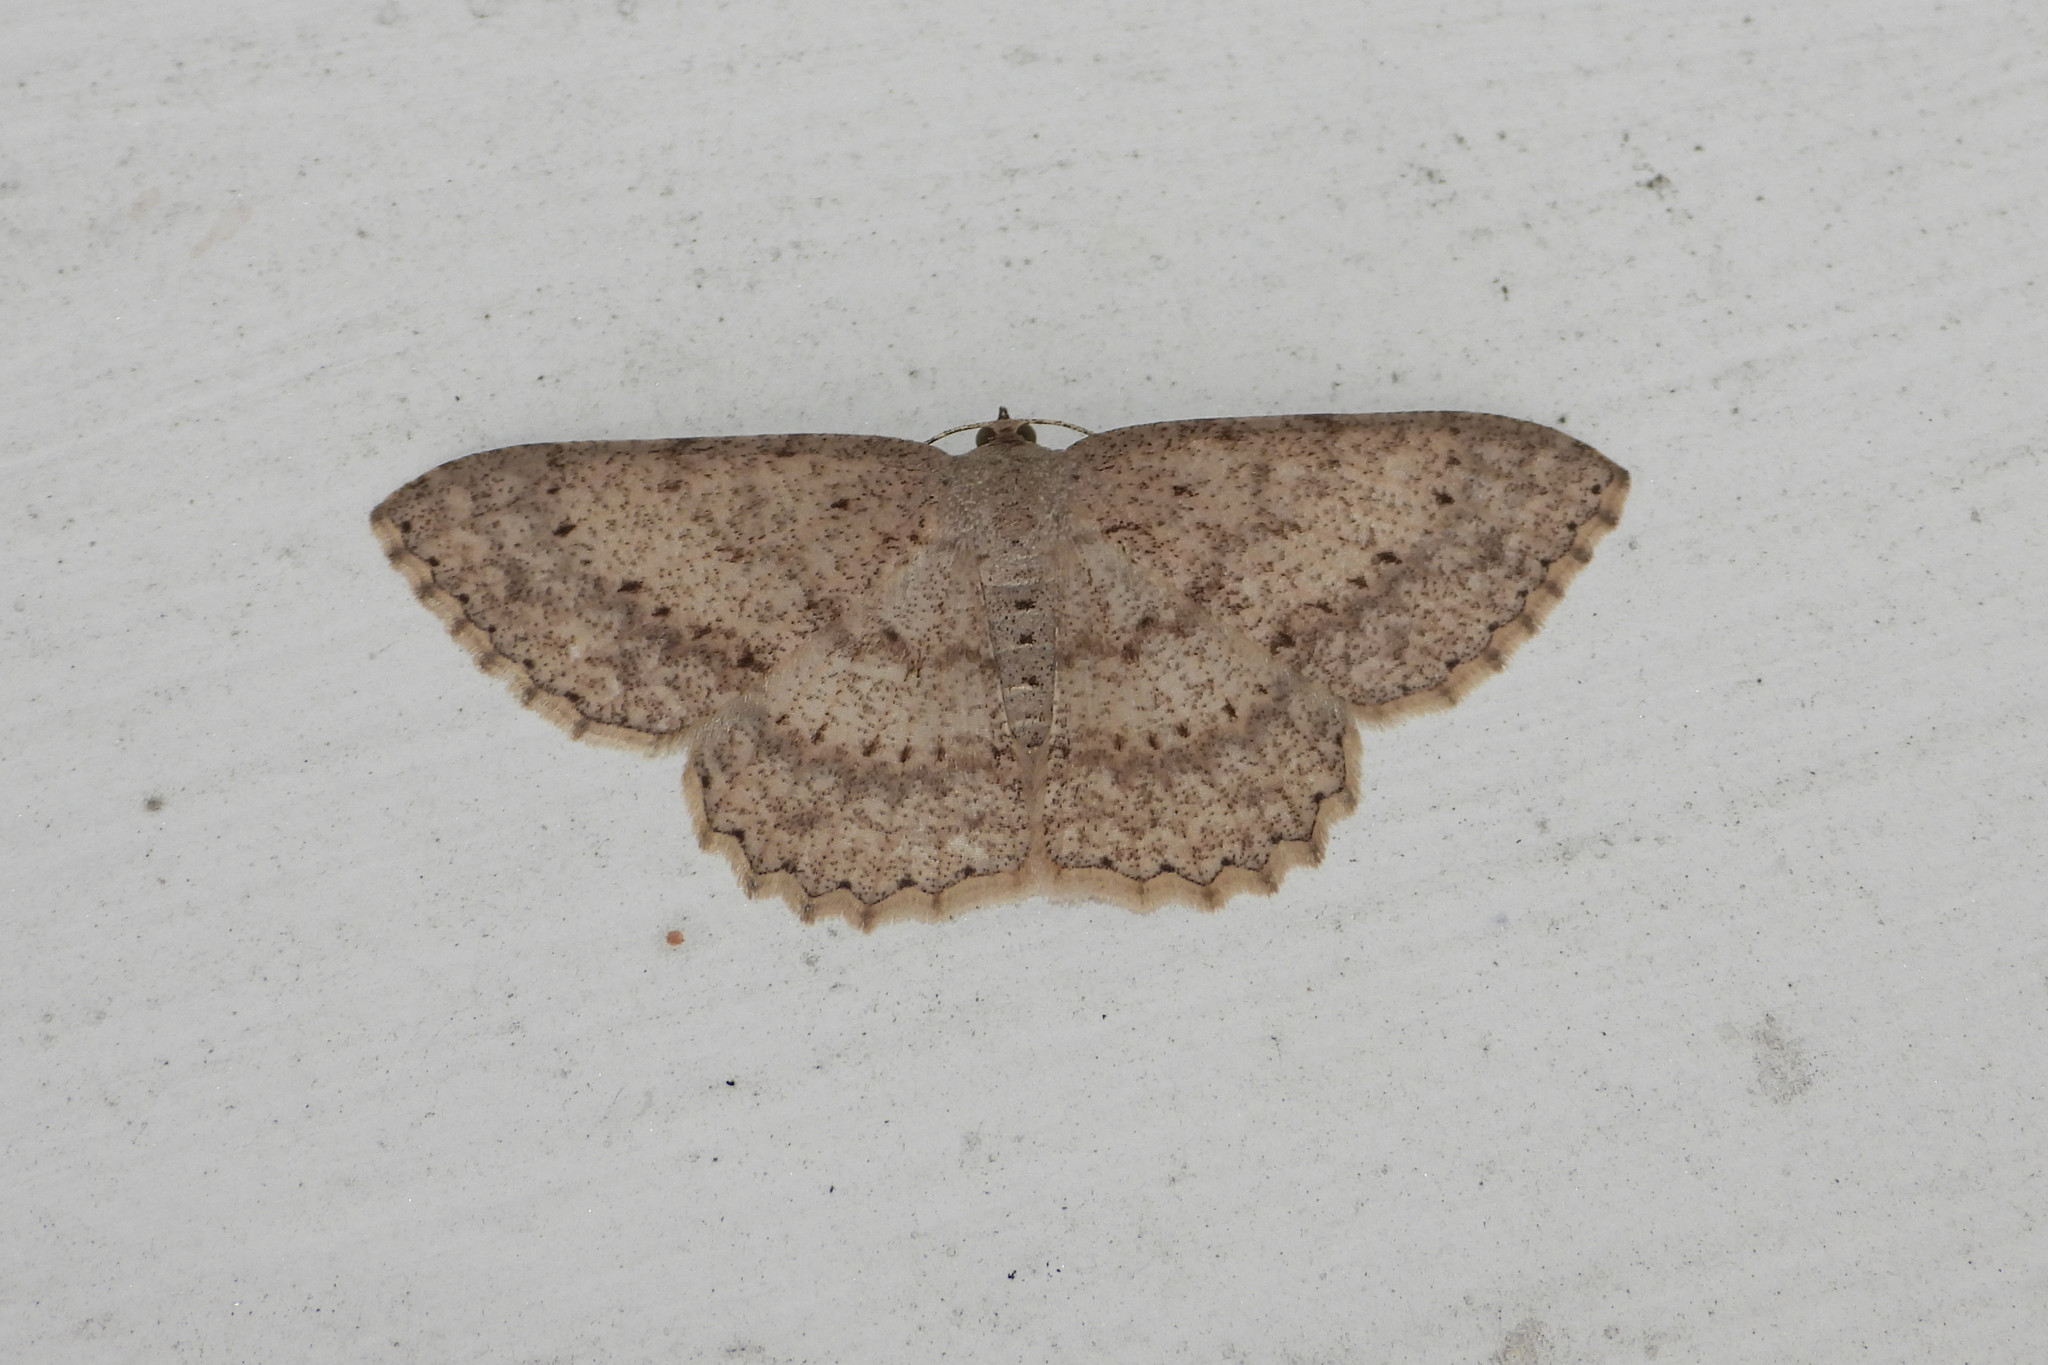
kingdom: Animalia
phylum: Arthropoda
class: Insecta
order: Lepidoptera
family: Geometridae
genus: Luxiaria
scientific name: Luxiaria acutaria
